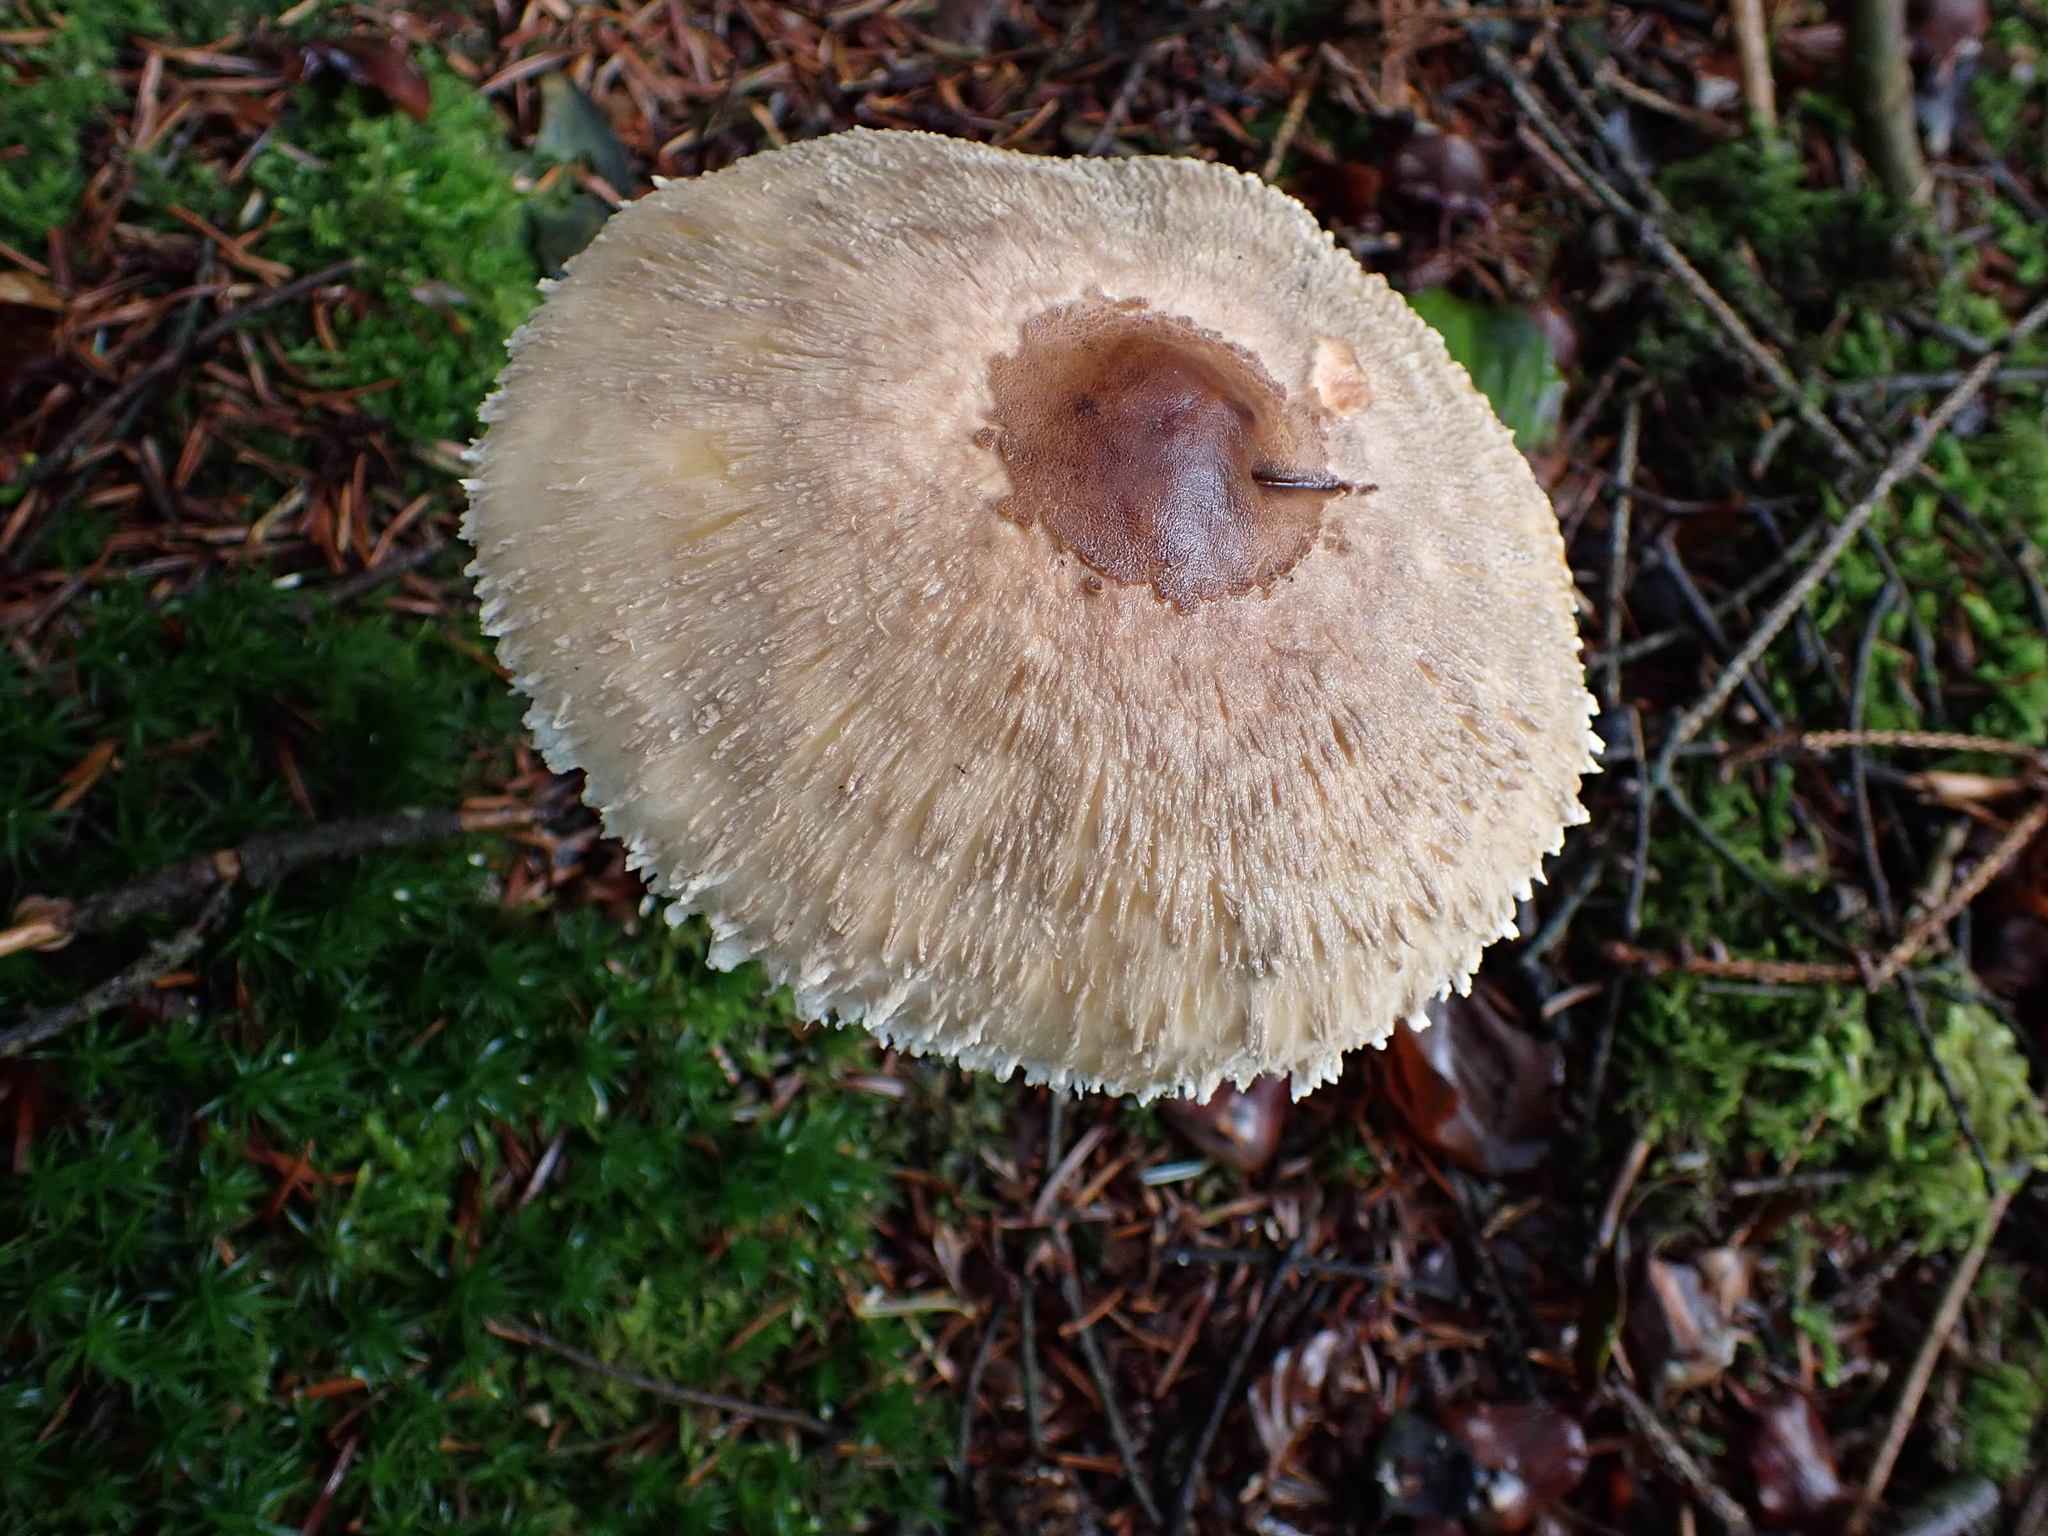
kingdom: Fungi
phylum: Basidiomycota
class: Agaricomycetes
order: Agaricales
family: Agaricaceae
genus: Macrolepiota
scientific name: Macrolepiota procera
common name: Parasol
